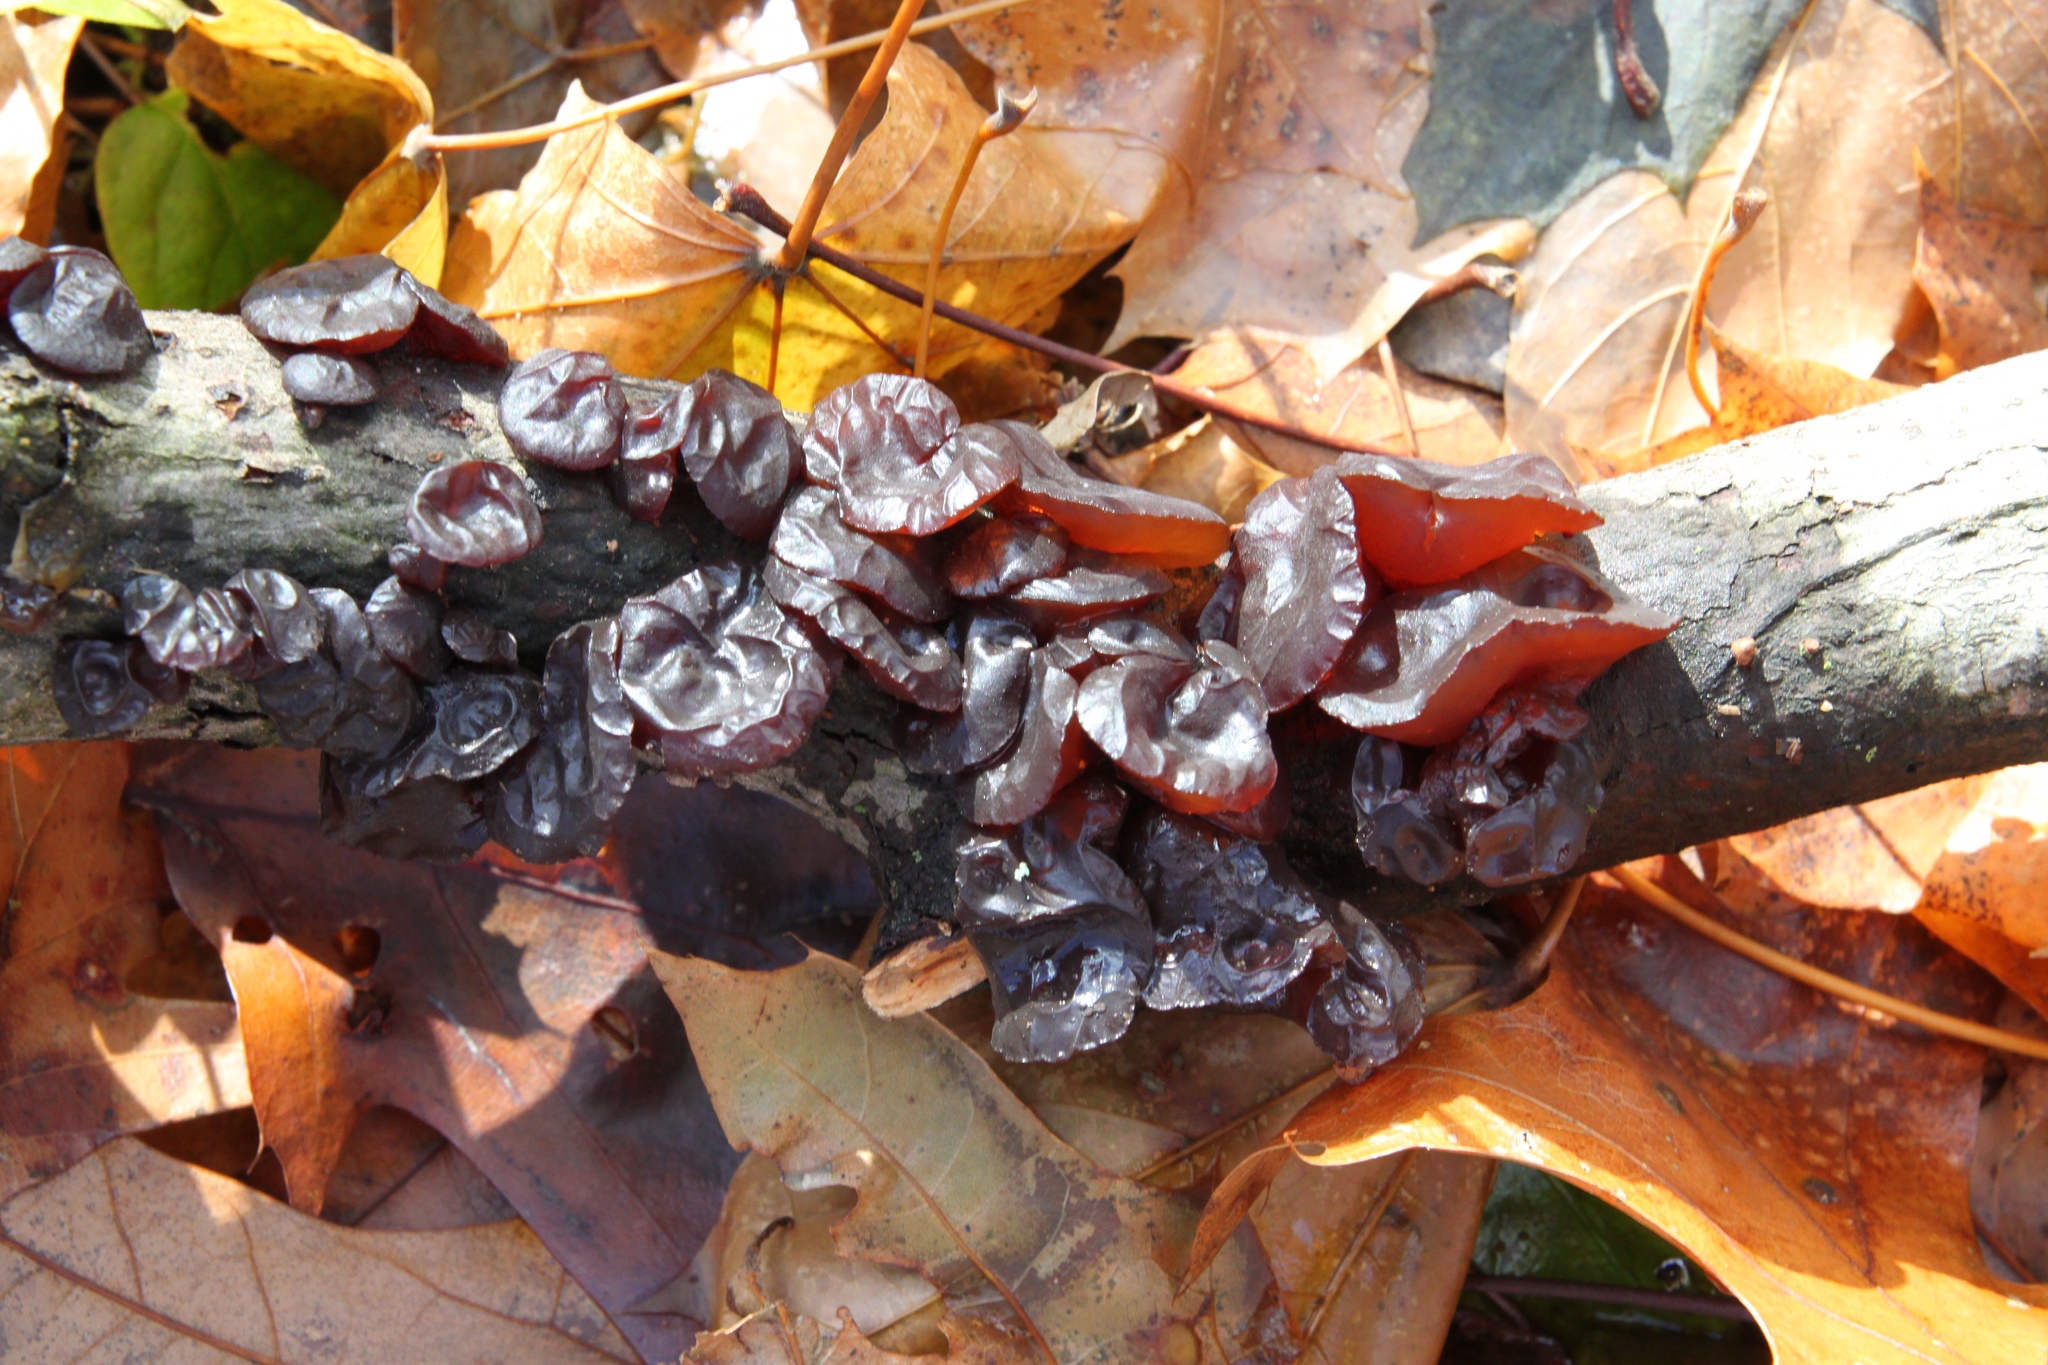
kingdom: Fungi
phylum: Basidiomycota
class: Agaricomycetes
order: Auriculariales
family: Auriculariaceae
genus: Exidia
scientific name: Exidia
